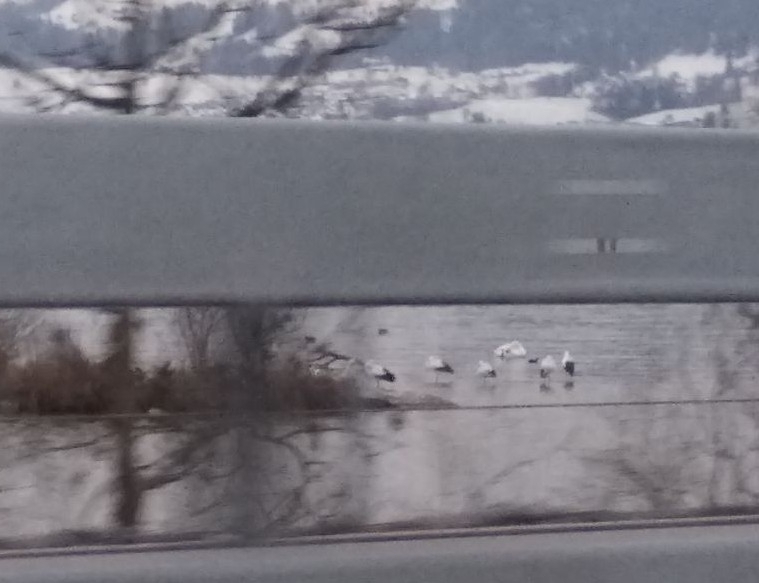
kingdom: Animalia
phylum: Chordata
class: Aves
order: Ciconiiformes
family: Ciconiidae
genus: Ciconia
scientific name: Ciconia ciconia
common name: White stork
